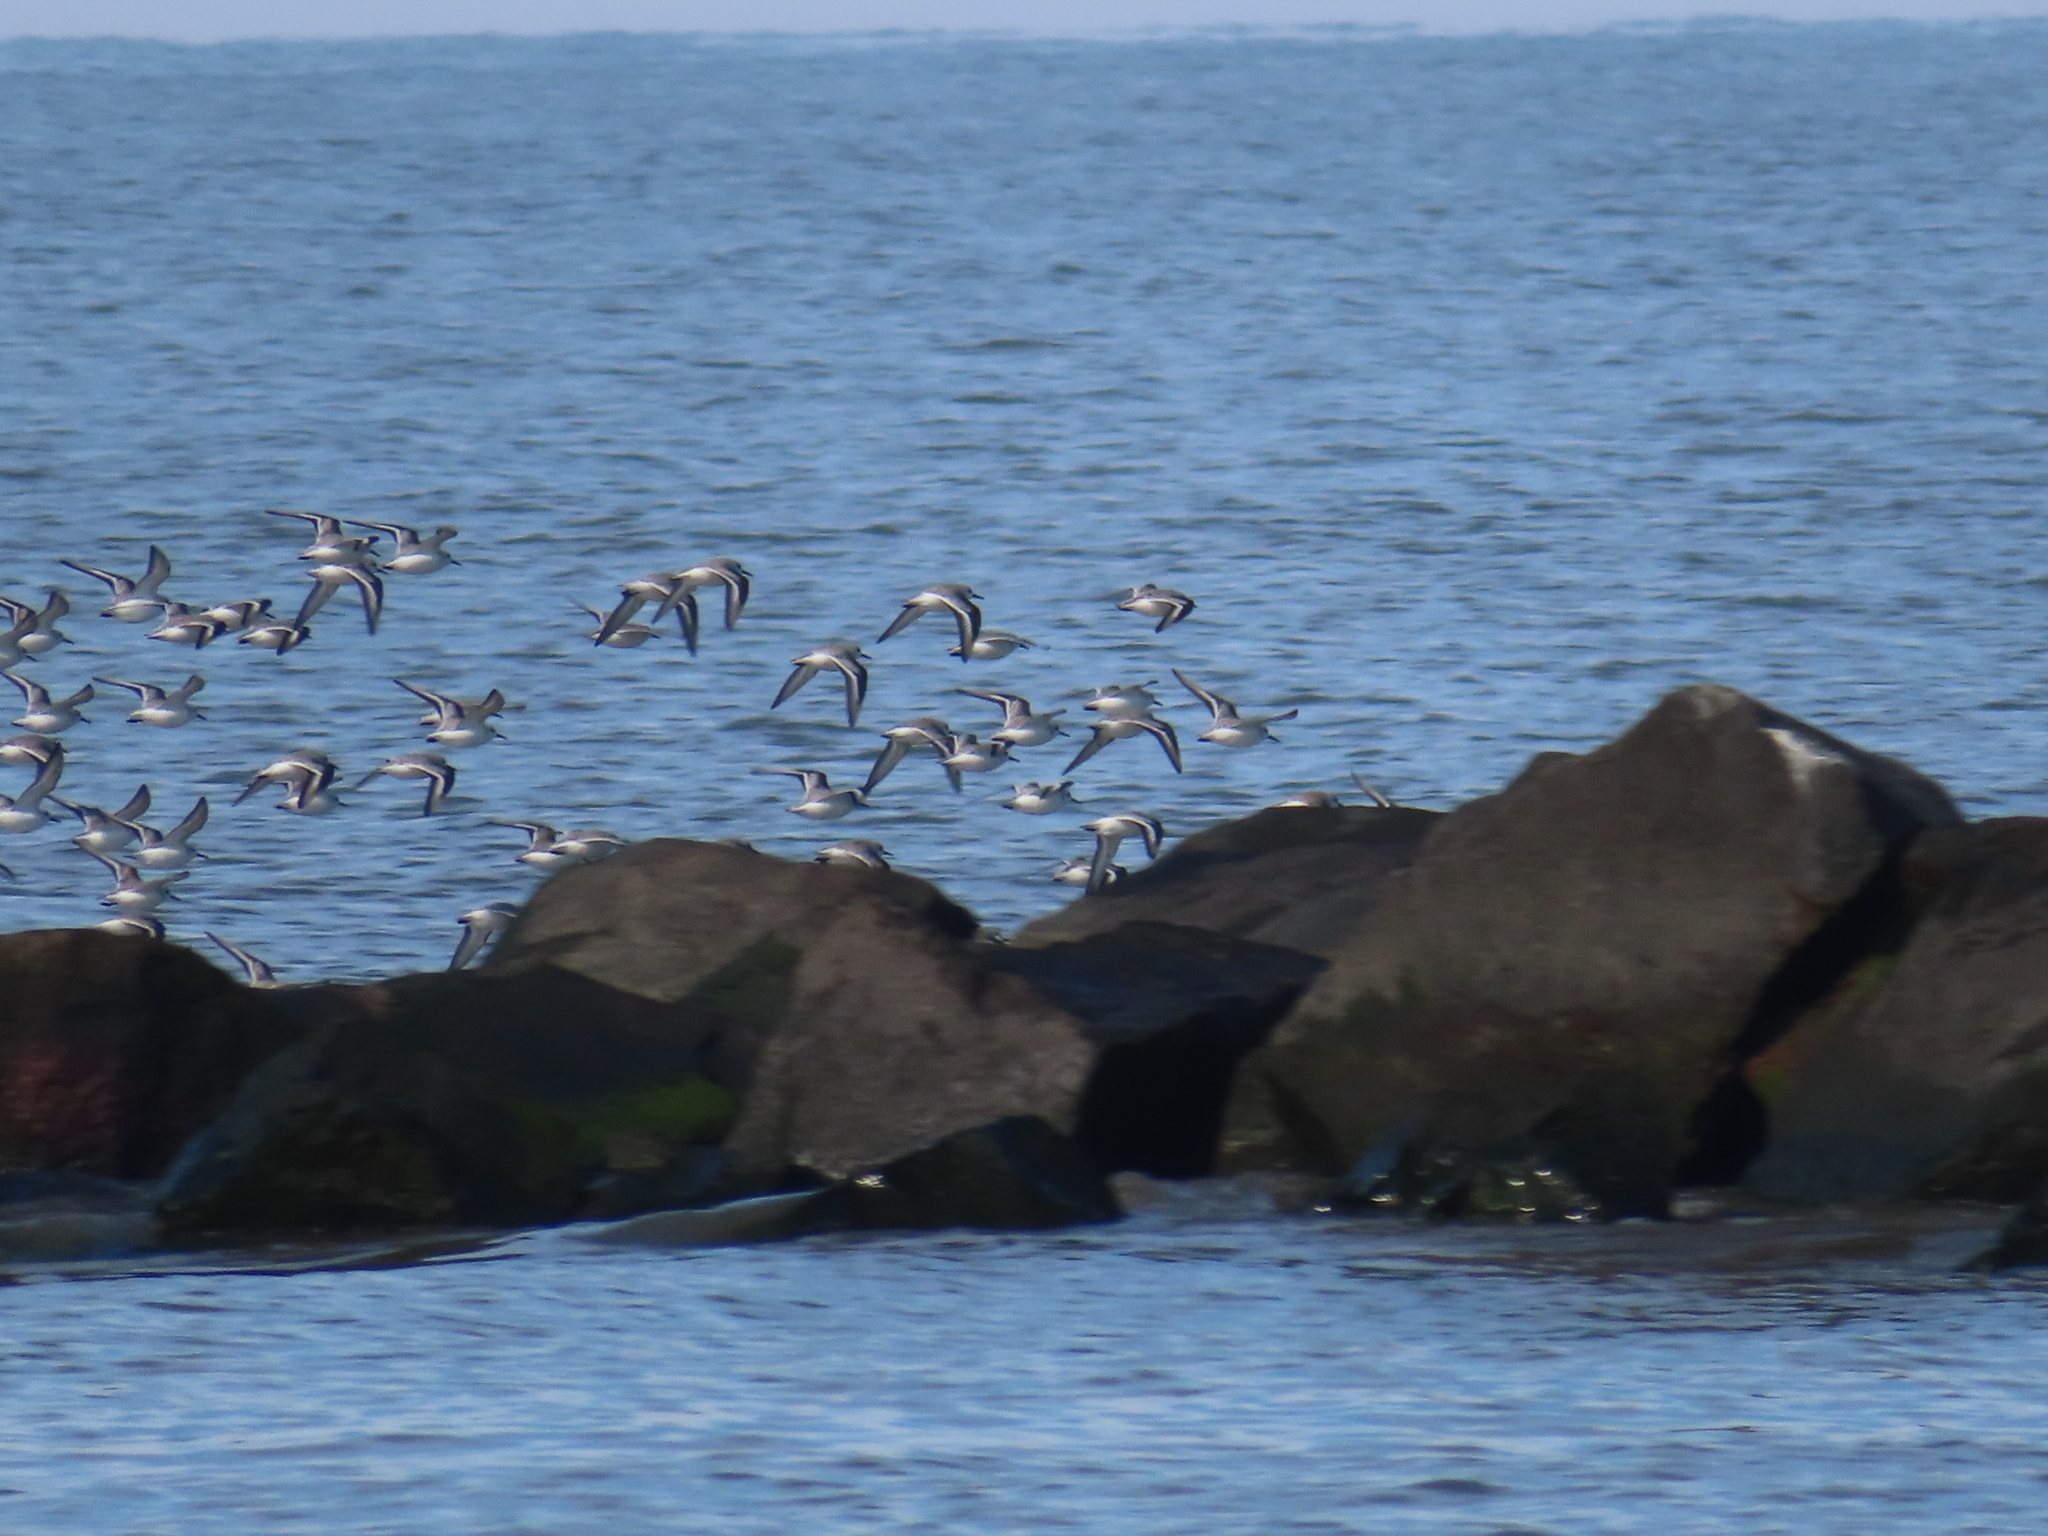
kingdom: Animalia
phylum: Chordata
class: Aves
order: Charadriiformes
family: Scolopacidae
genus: Calidris
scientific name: Calidris alba
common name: Sanderling
